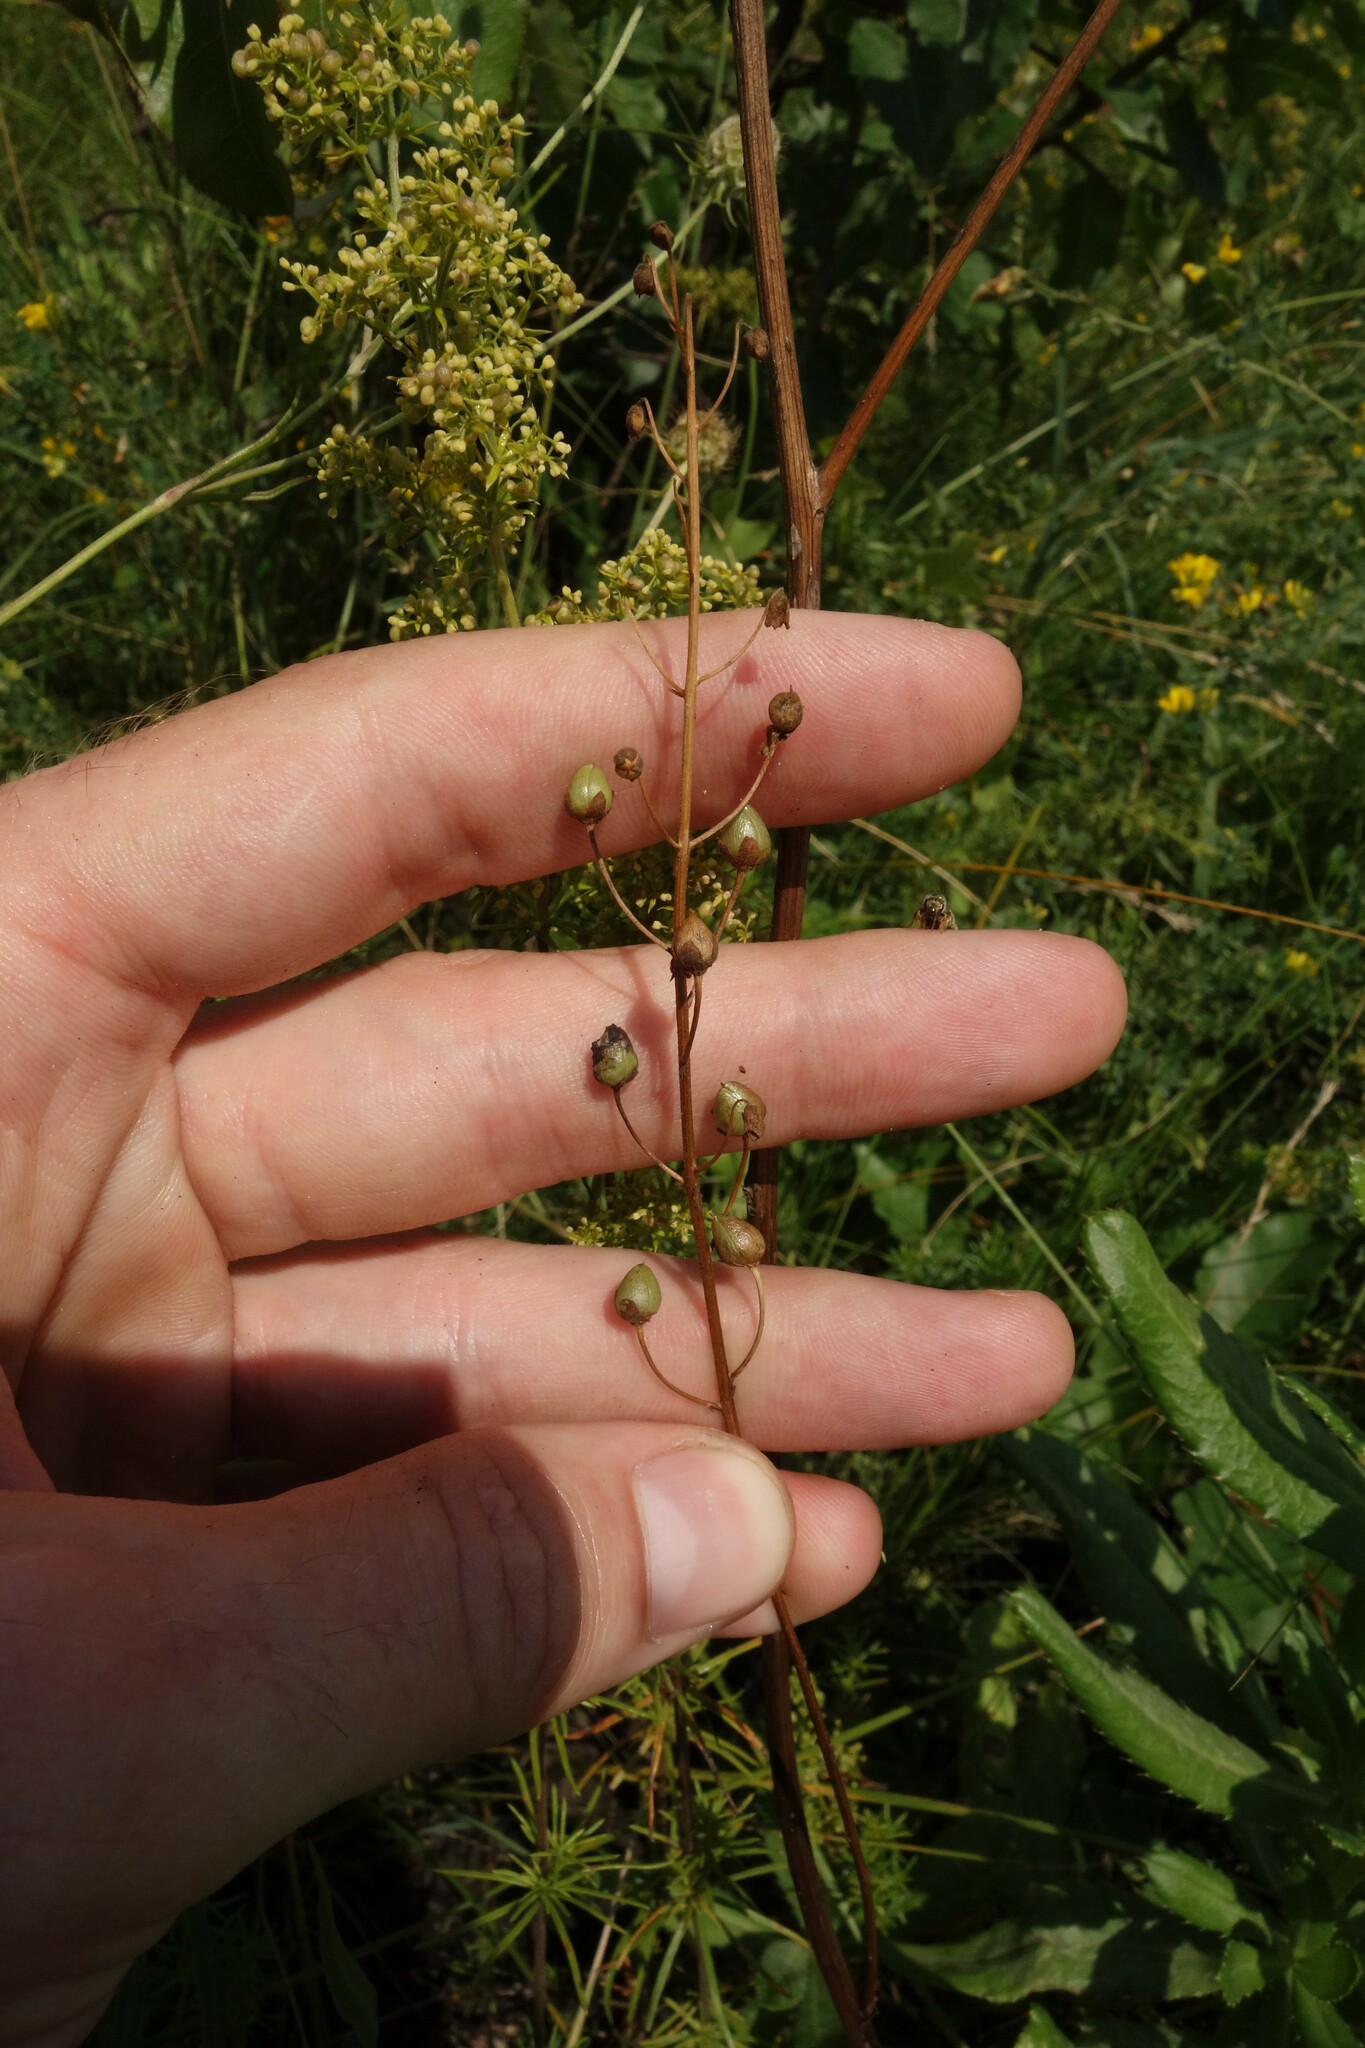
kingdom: Plantae
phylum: Tracheophyta
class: Magnoliopsida
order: Lamiales
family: Scrophulariaceae
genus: Verbascum
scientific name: Verbascum phoeniceum
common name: Purple mullein
